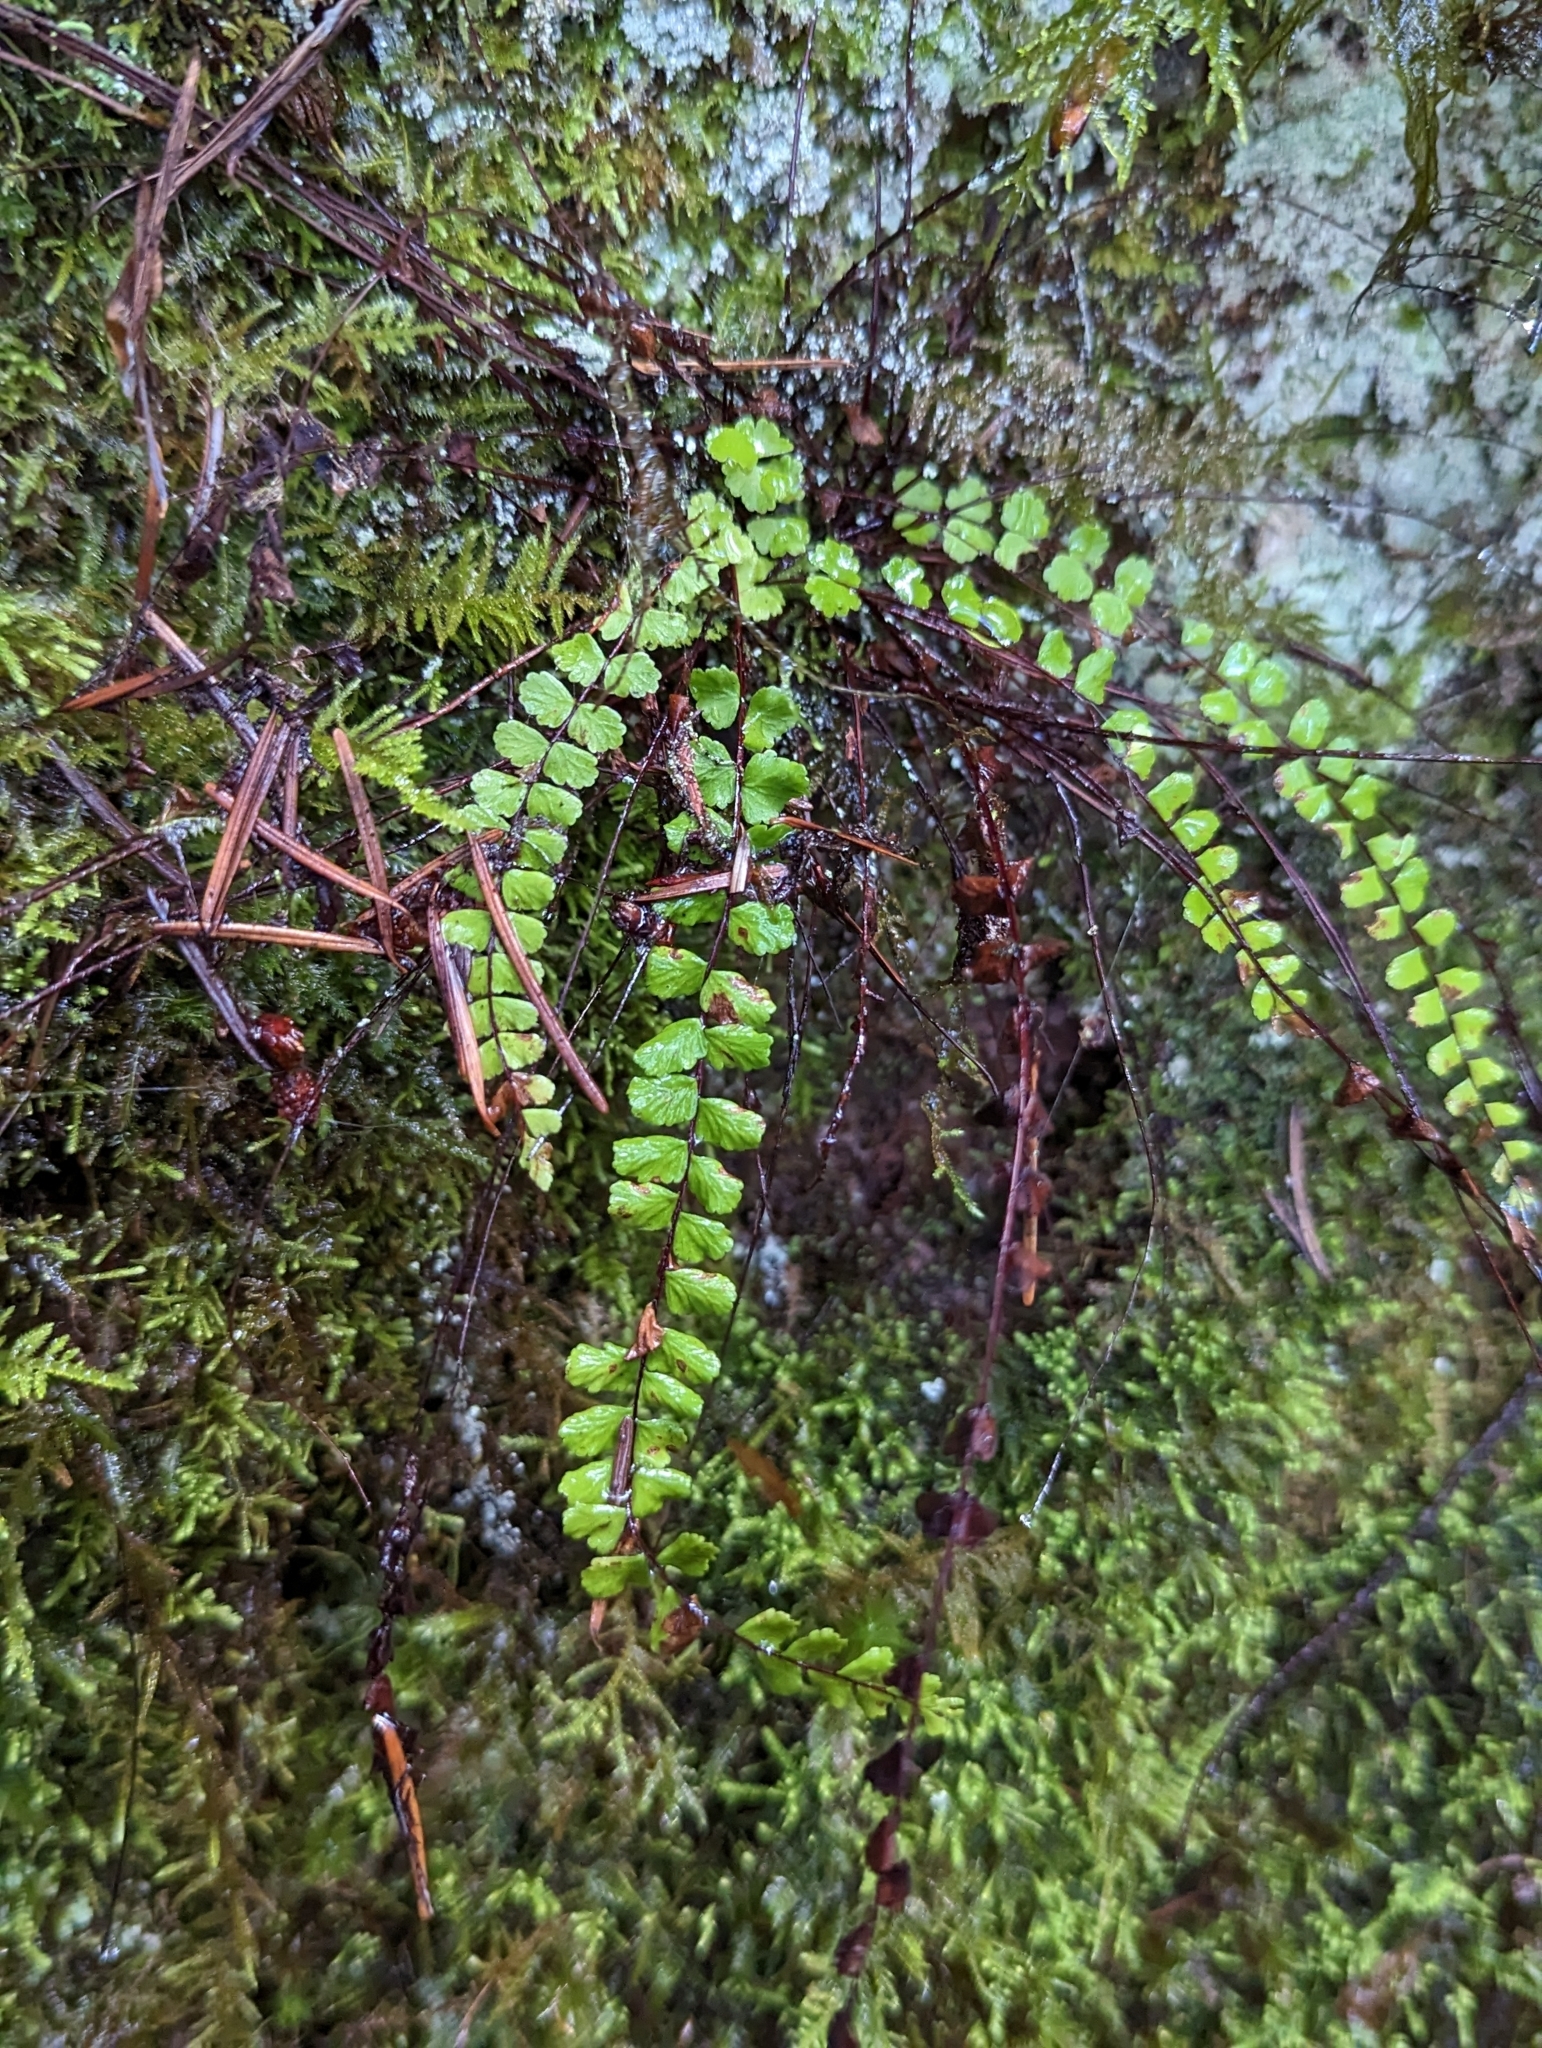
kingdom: Plantae
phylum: Tracheophyta
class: Polypodiopsida
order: Polypodiales
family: Aspleniaceae
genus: Asplenium
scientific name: Asplenium trichomanes
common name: Maidenhair spleenwort
